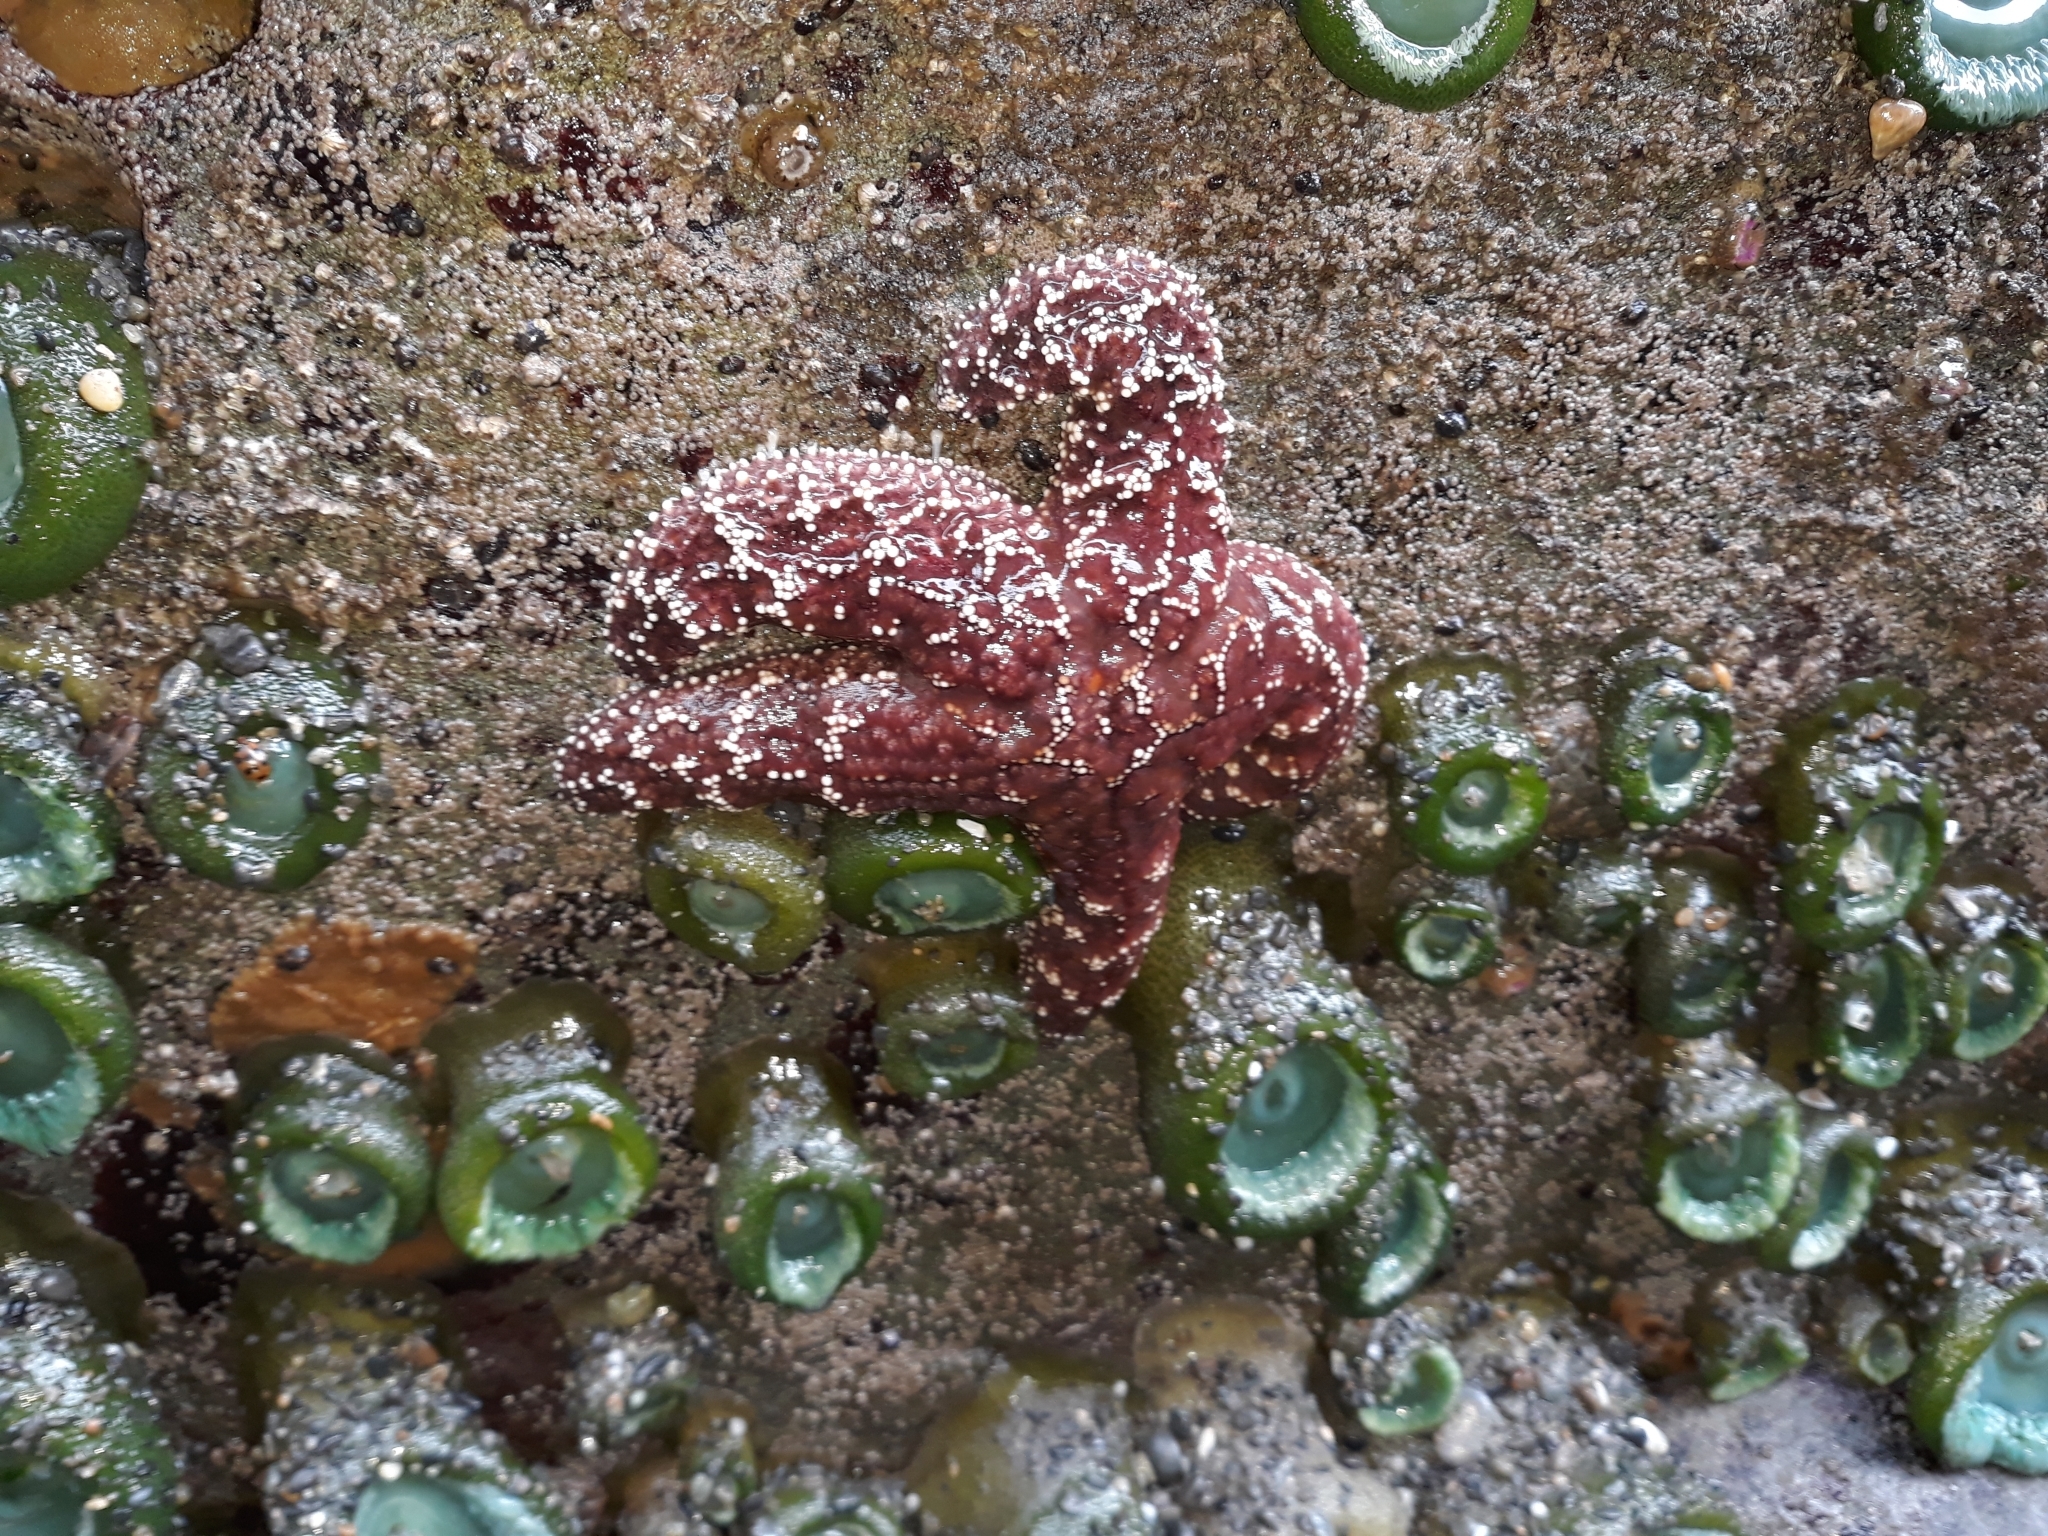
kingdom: Animalia
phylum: Echinodermata
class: Asteroidea
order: Forcipulatida
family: Asteriidae
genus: Pisaster
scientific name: Pisaster ochraceus
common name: Ochre stars
